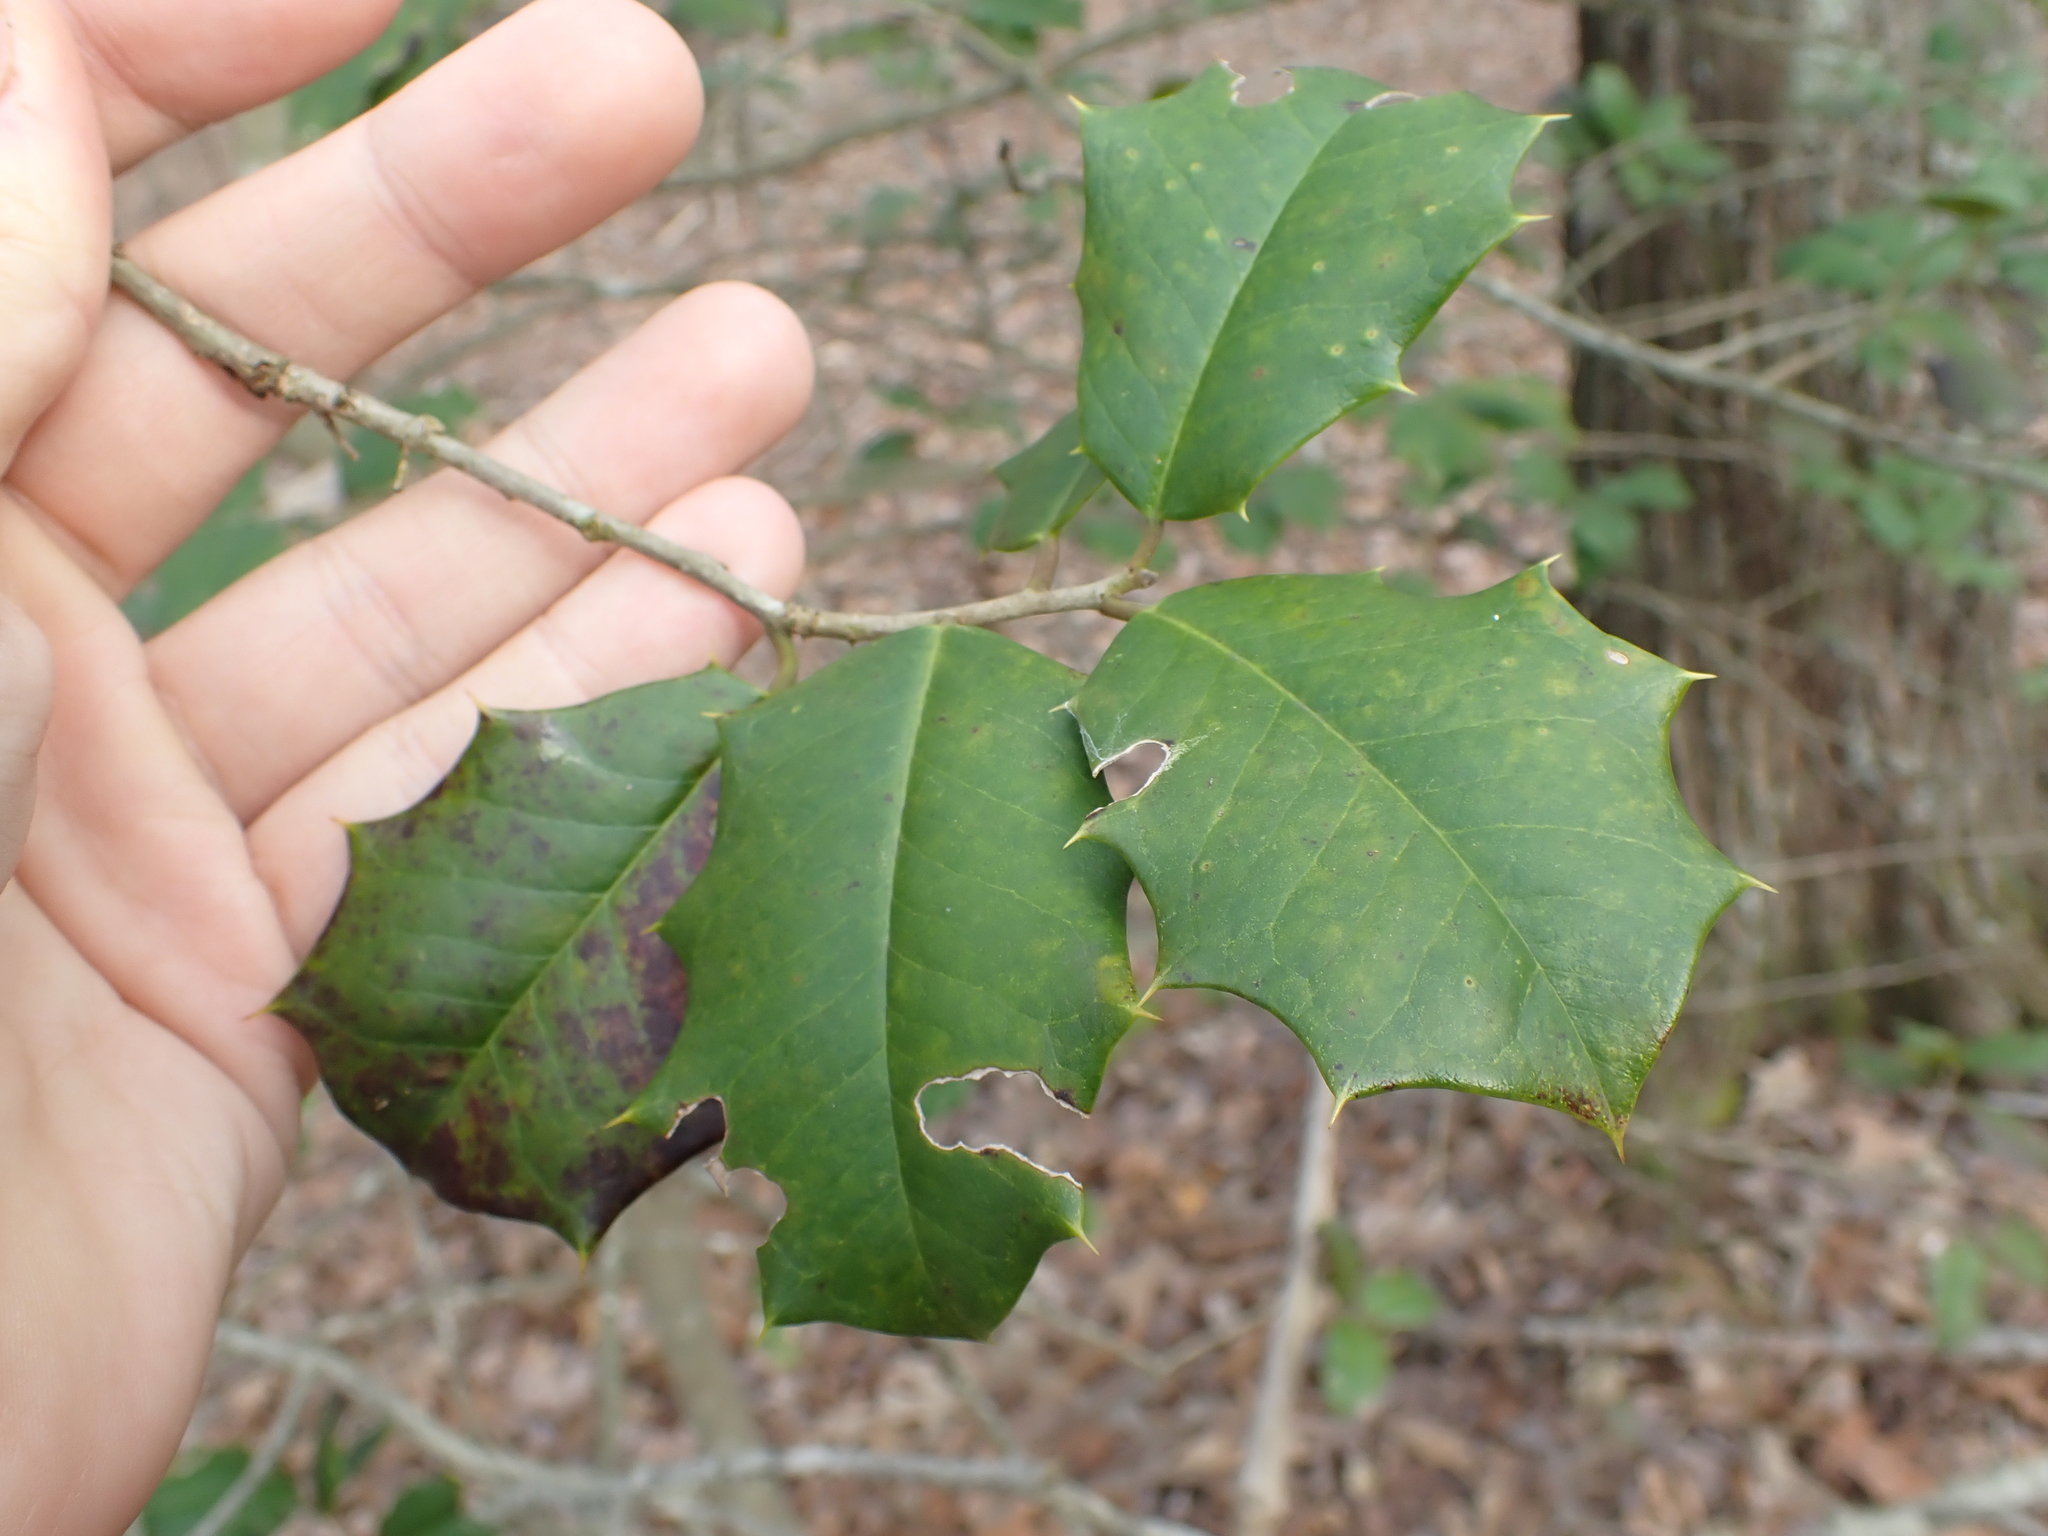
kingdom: Plantae
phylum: Tracheophyta
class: Magnoliopsida
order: Aquifoliales
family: Aquifoliaceae
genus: Ilex
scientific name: Ilex opaca
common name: American holly
